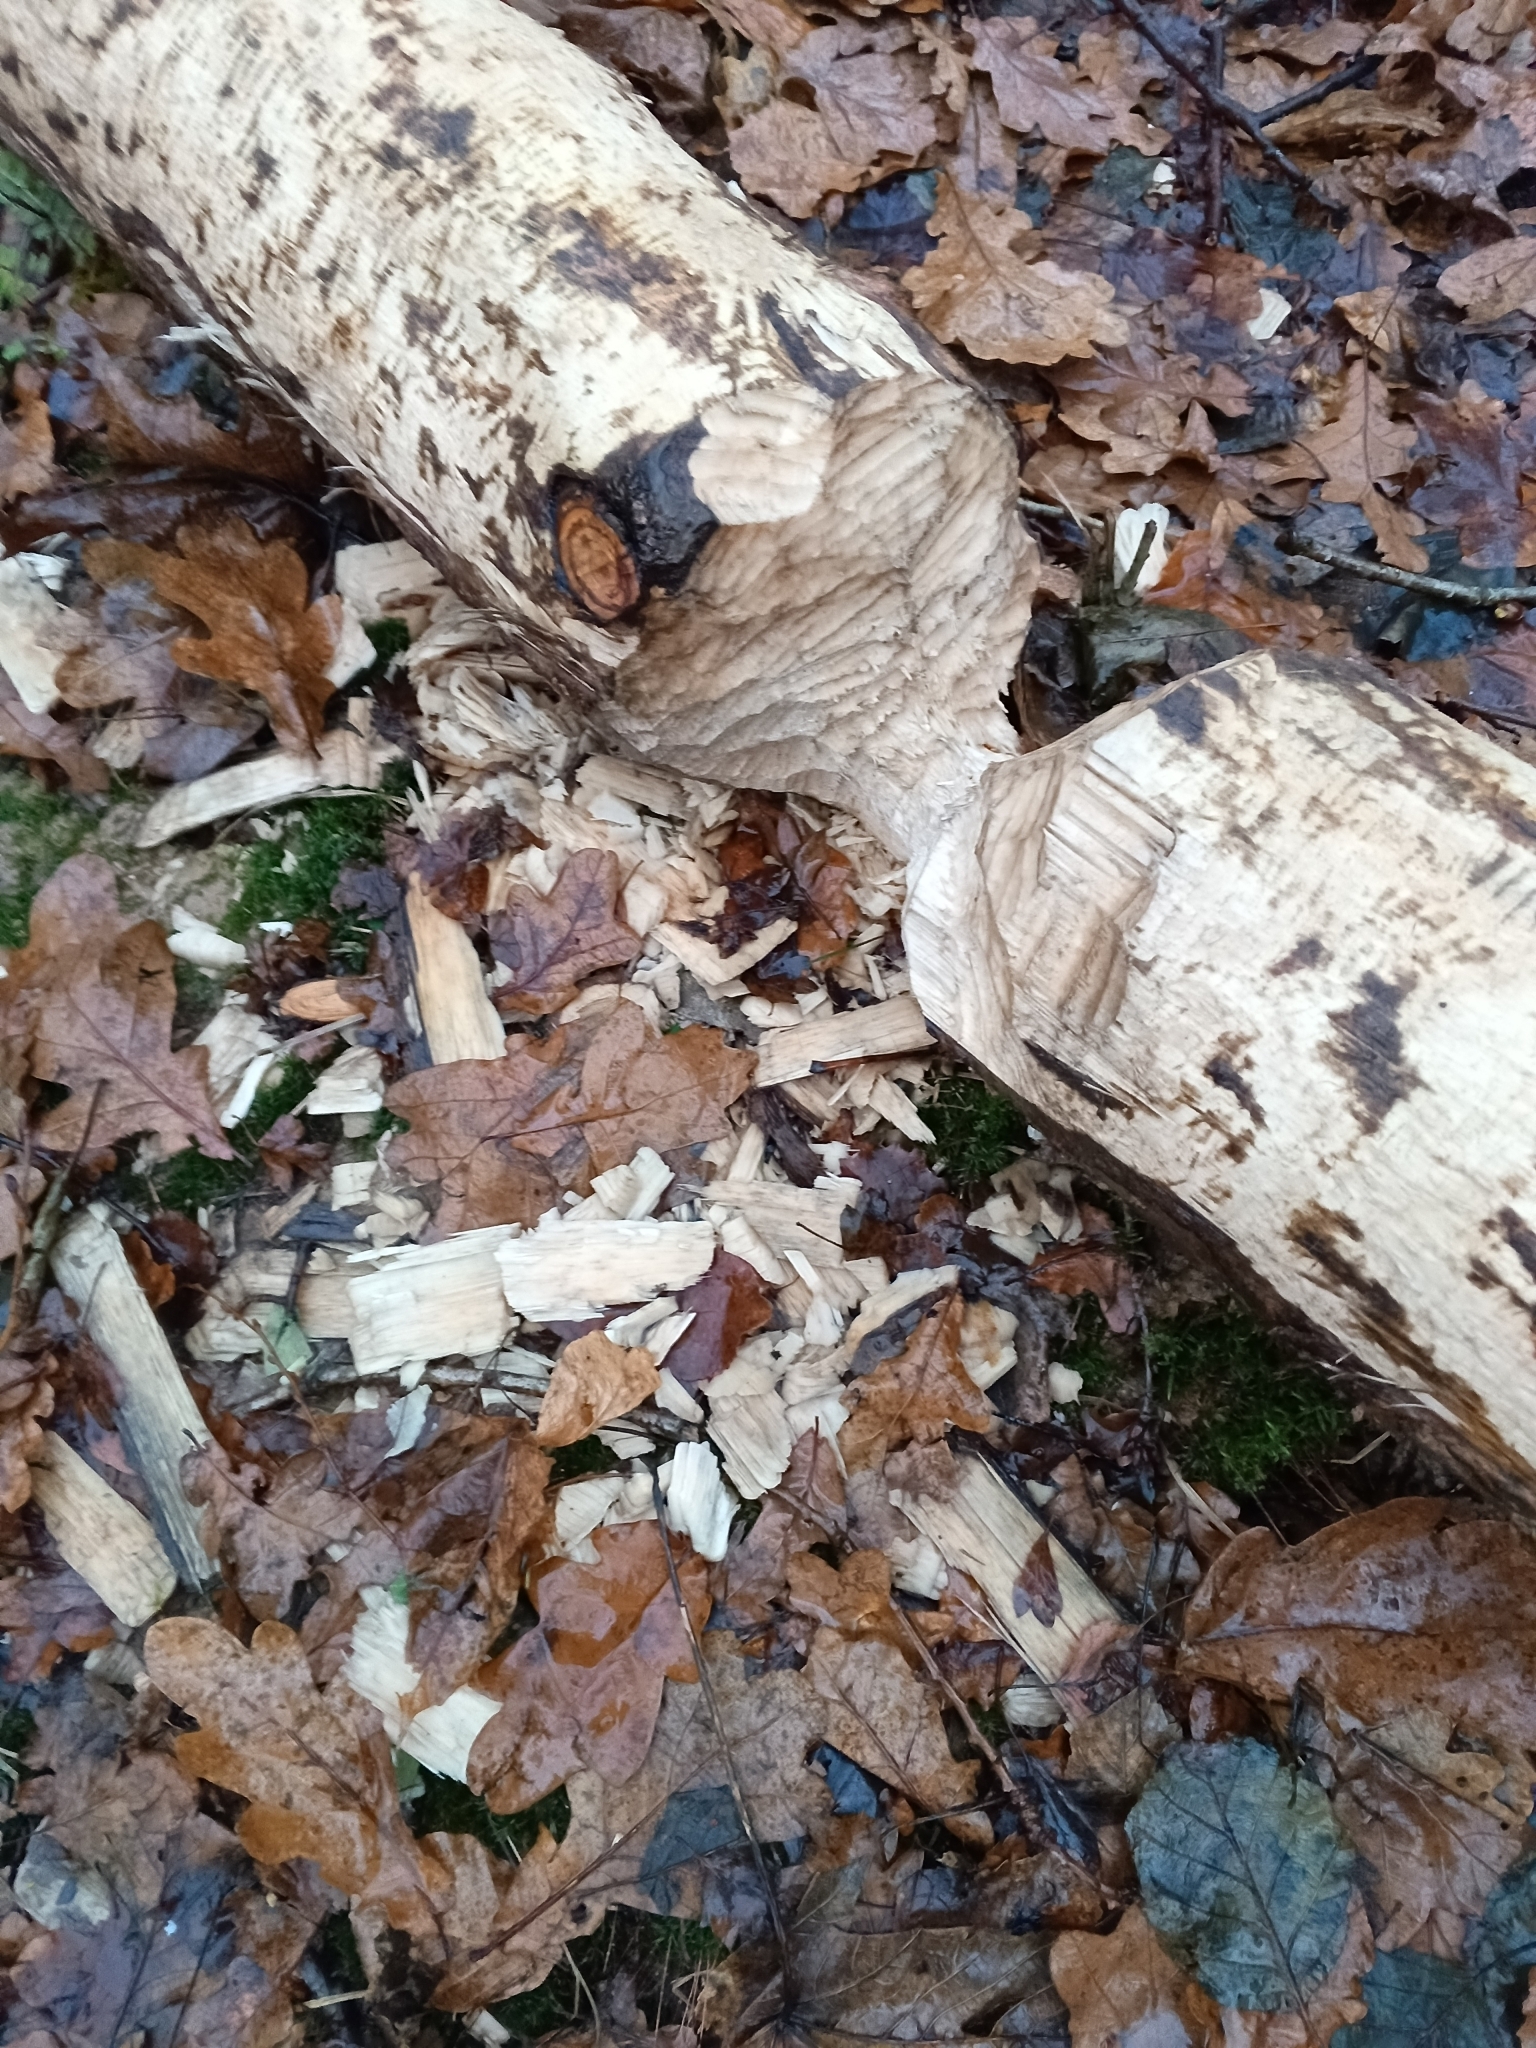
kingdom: Animalia
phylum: Chordata
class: Mammalia
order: Rodentia
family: Castoridae
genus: Castor
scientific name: Castor fiber
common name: Eurasian beaver
